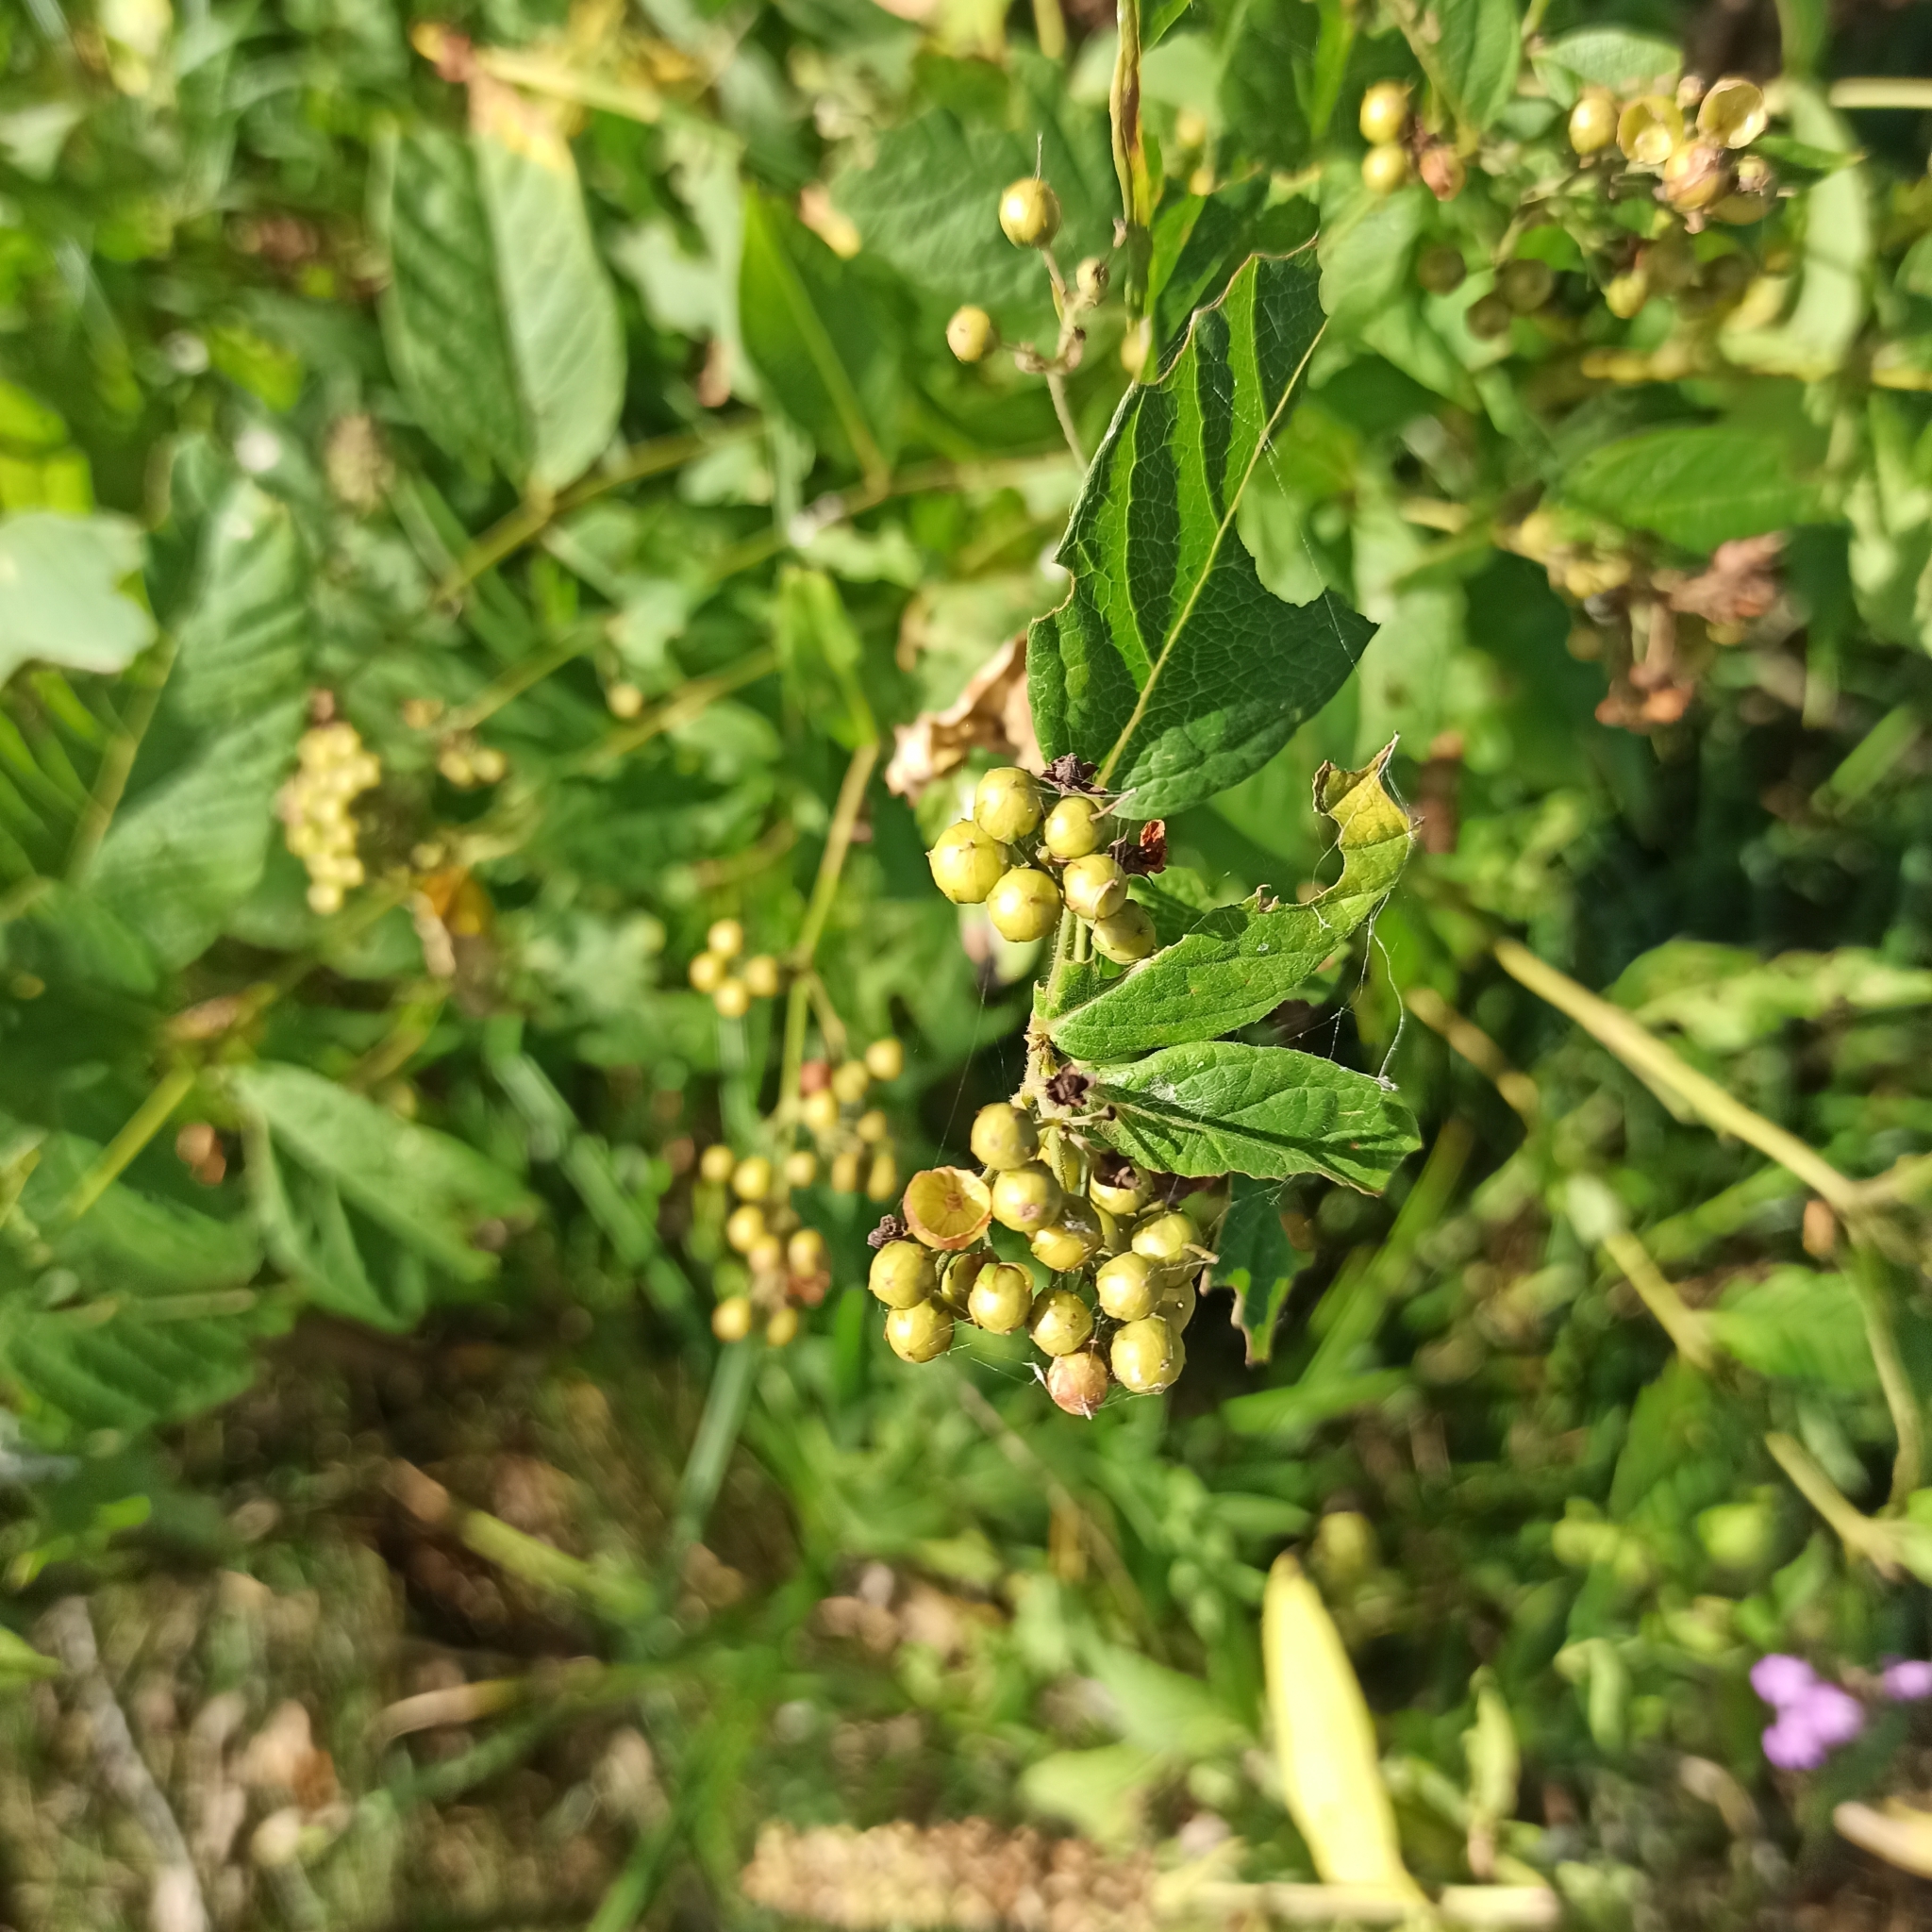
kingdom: Plantae
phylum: Tracheophyta
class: Magnoliopsida
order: Ericales
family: Primulaceae
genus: Lysimachia
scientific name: Lysimachia vulgaris
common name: Yellow loosestrife
